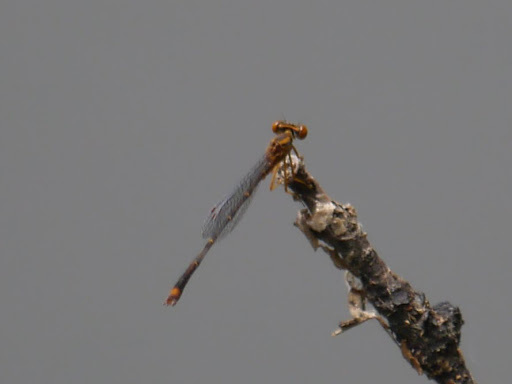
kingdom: Animalia
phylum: Arthropoda
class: Insecta
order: Odonata
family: Coenagrionidae
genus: Enallagma
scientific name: Enallagma signatum
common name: Orange bluet
